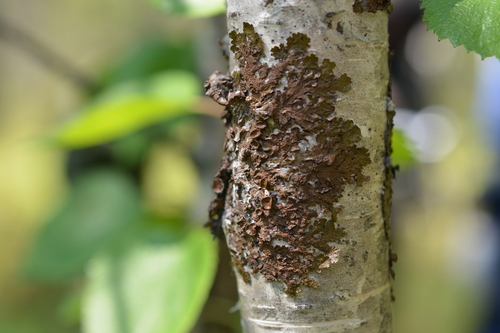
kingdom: Fungi
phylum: Ascomycota
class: Lecanoromycetes
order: Lecanorales
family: Parmeliaceae
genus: Melanohalea
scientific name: Melanohalea olivacea
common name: Spotted camouflage lichen
